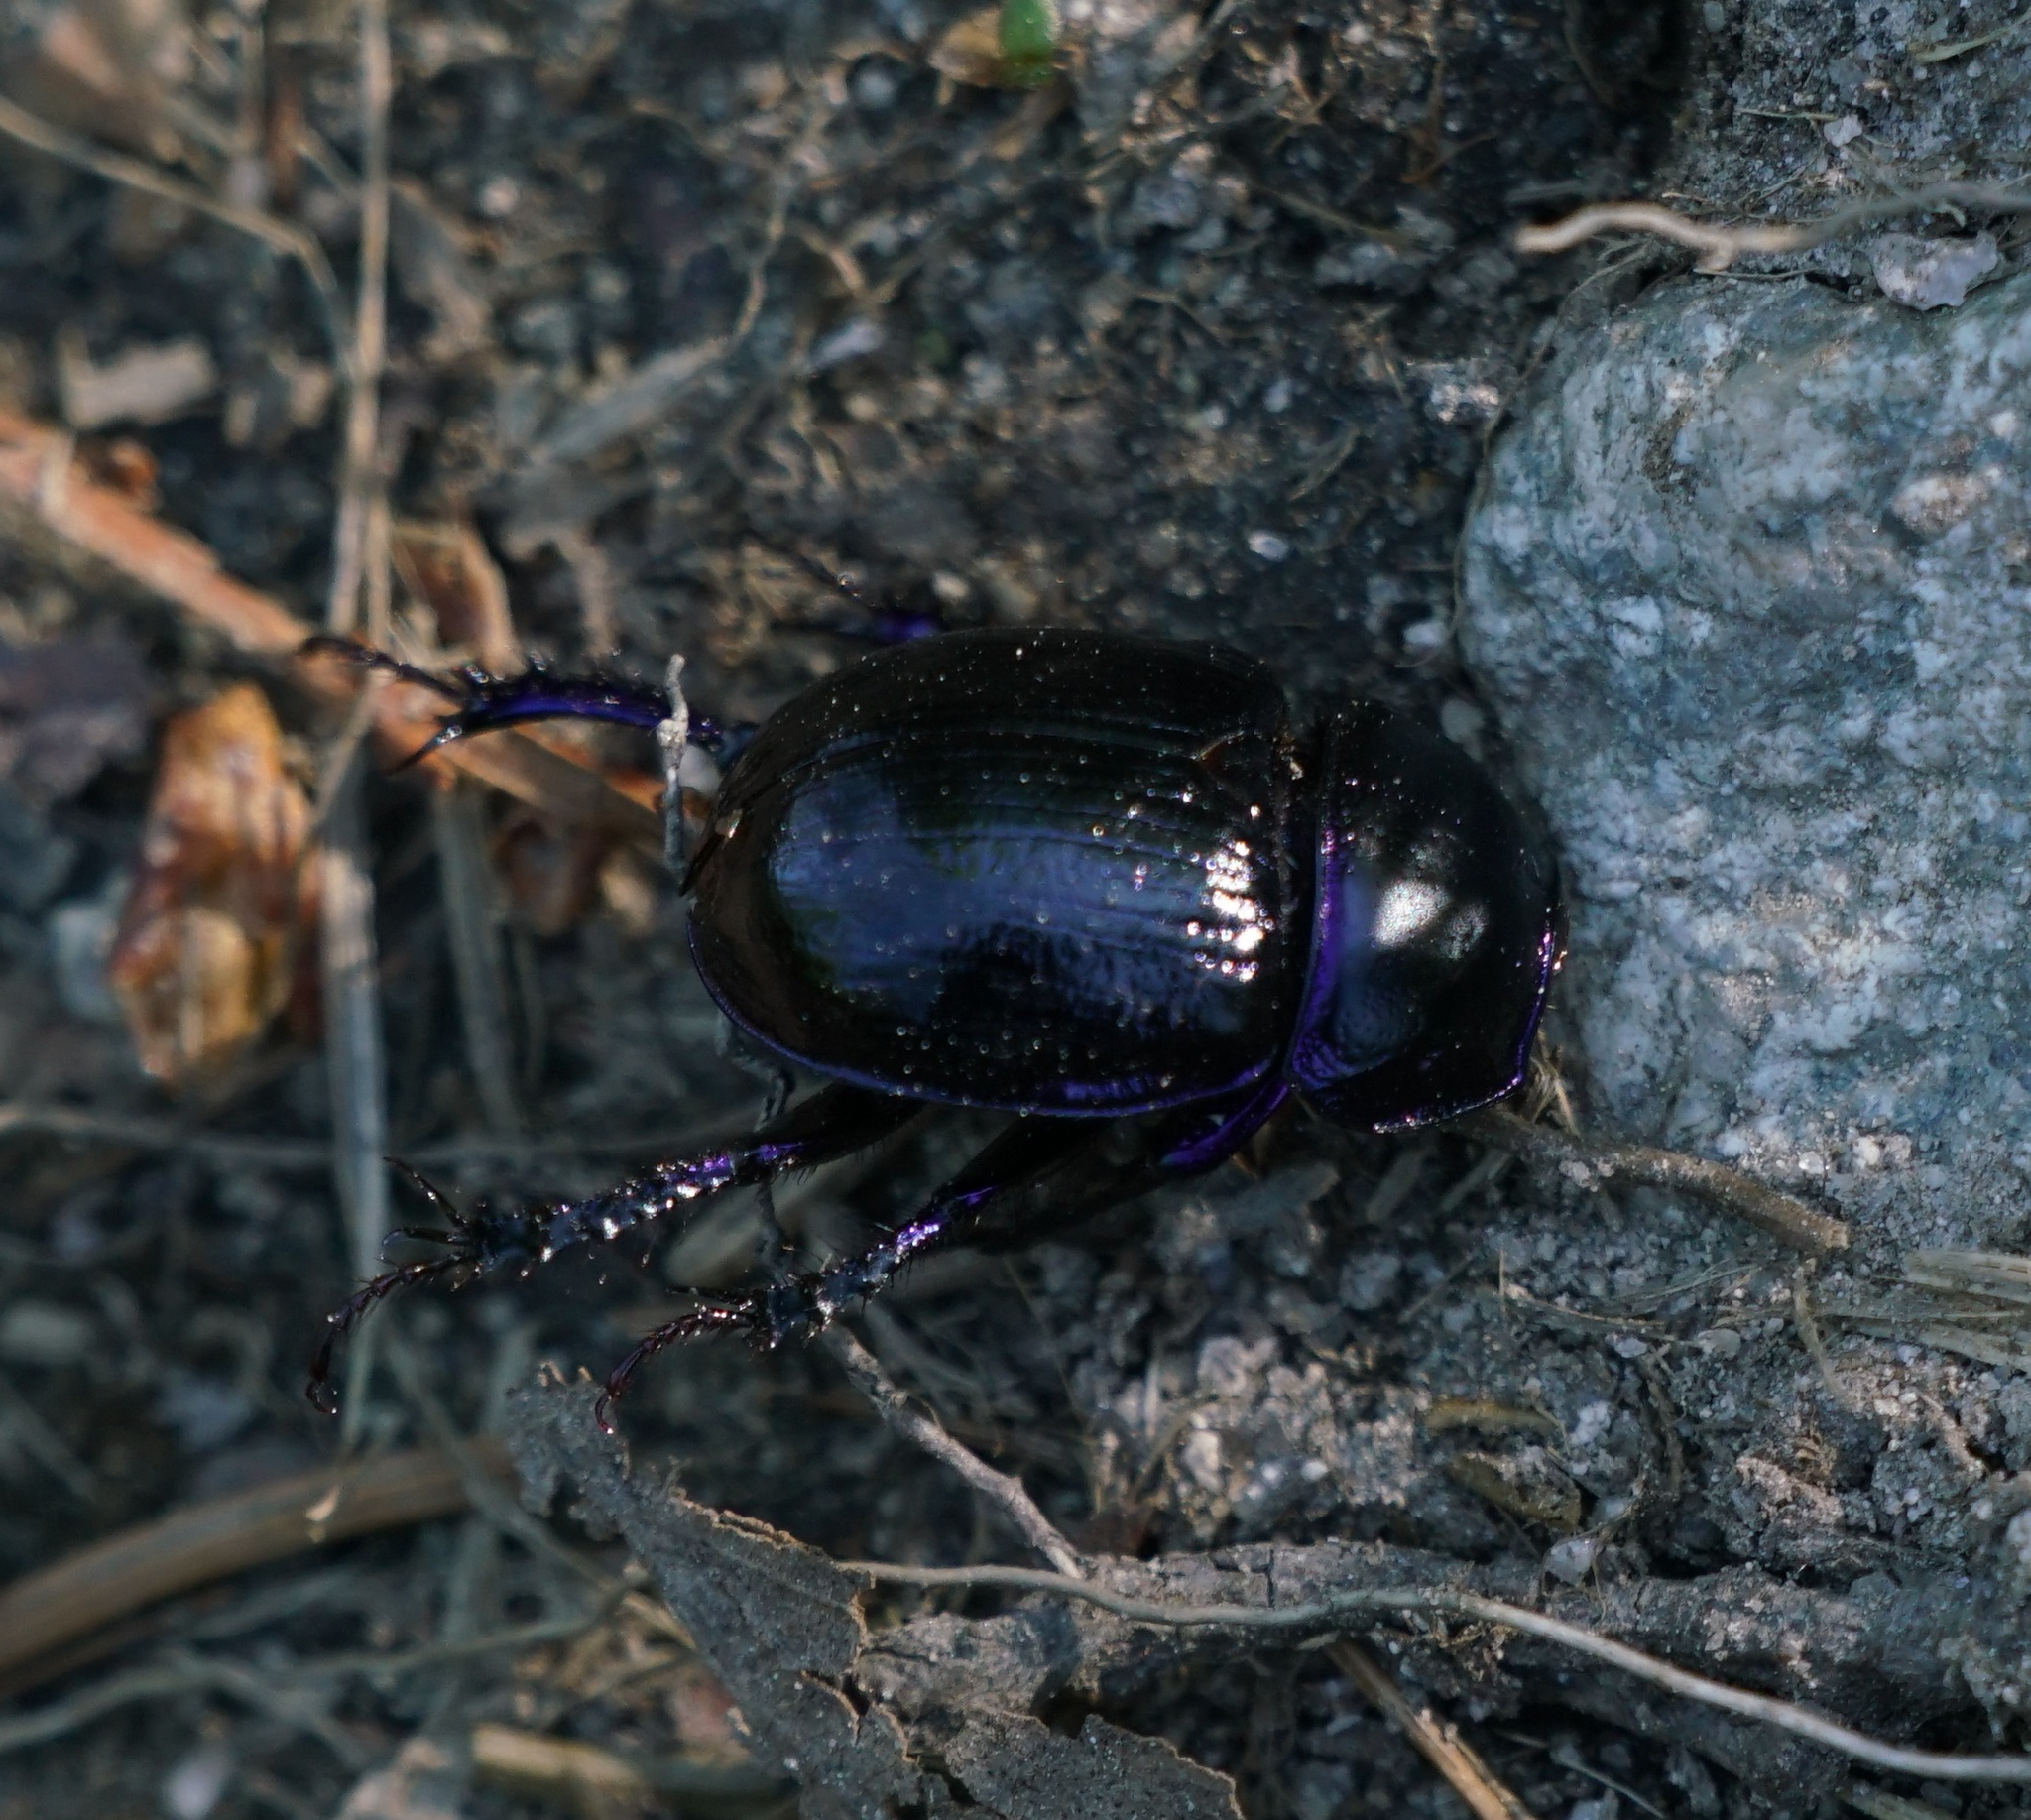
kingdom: Animalia
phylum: Arthropoda
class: Insecta
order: Coleoptera
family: Geotrupidae
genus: Anoplotrupes
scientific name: Anoplotrupes stercorosus
